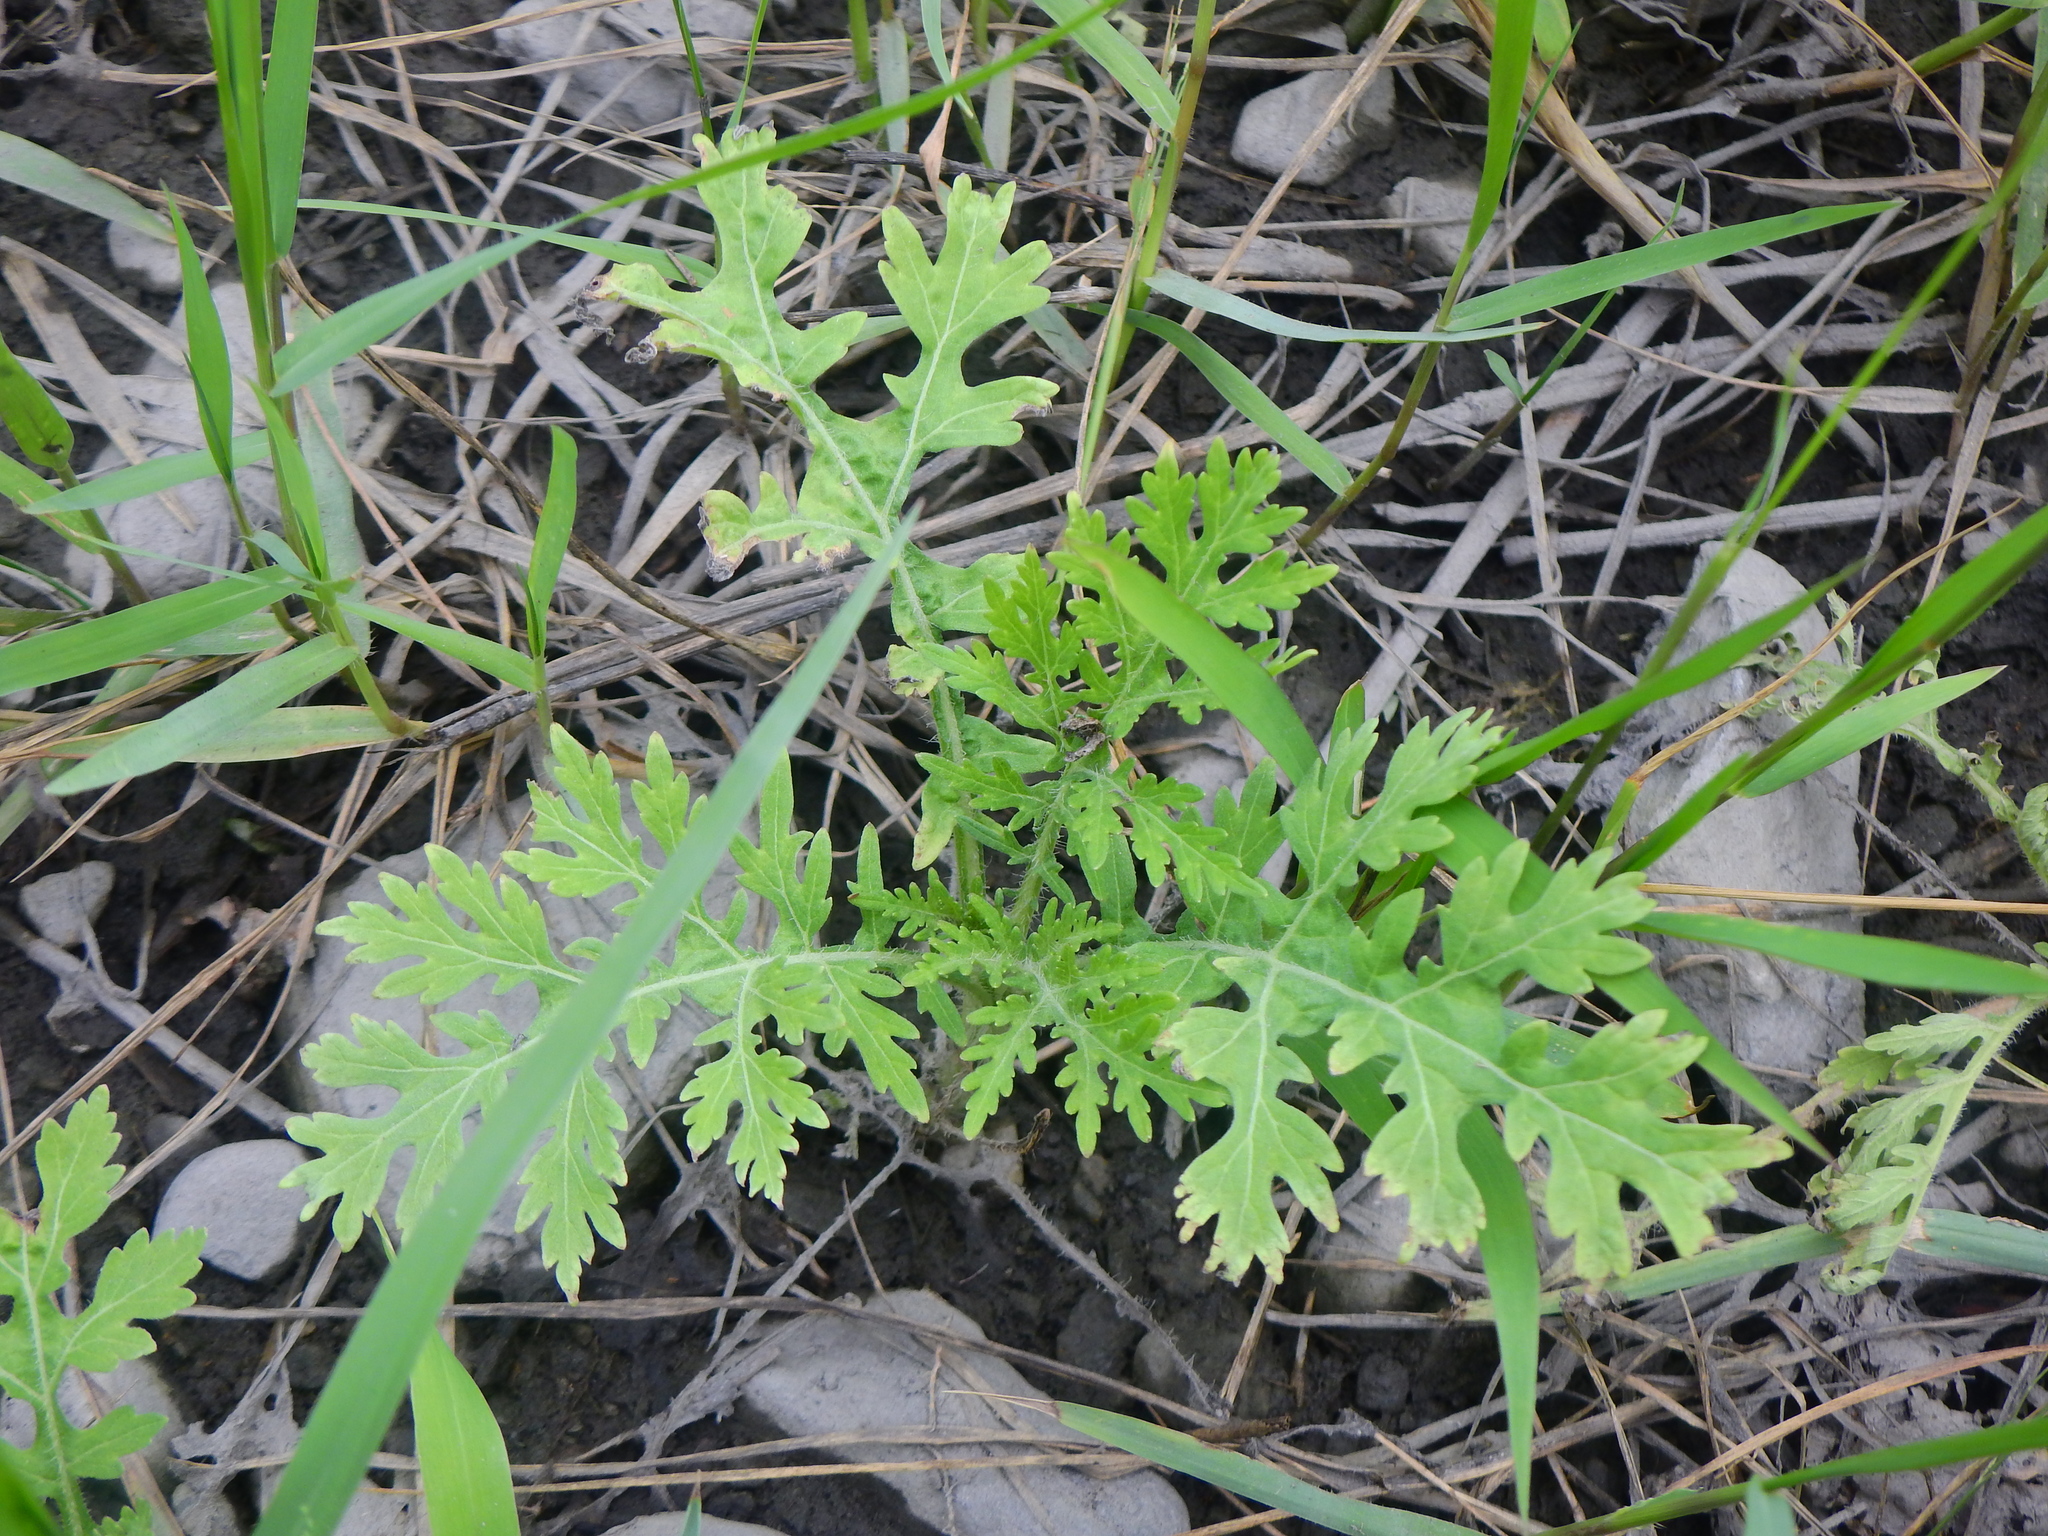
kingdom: Plantae
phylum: Tracheophyta
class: Magnoliopsida
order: Asterales
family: Asteraceae
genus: Parthenium
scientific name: Parthenium hysterophorus
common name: Santa maria feverfew
